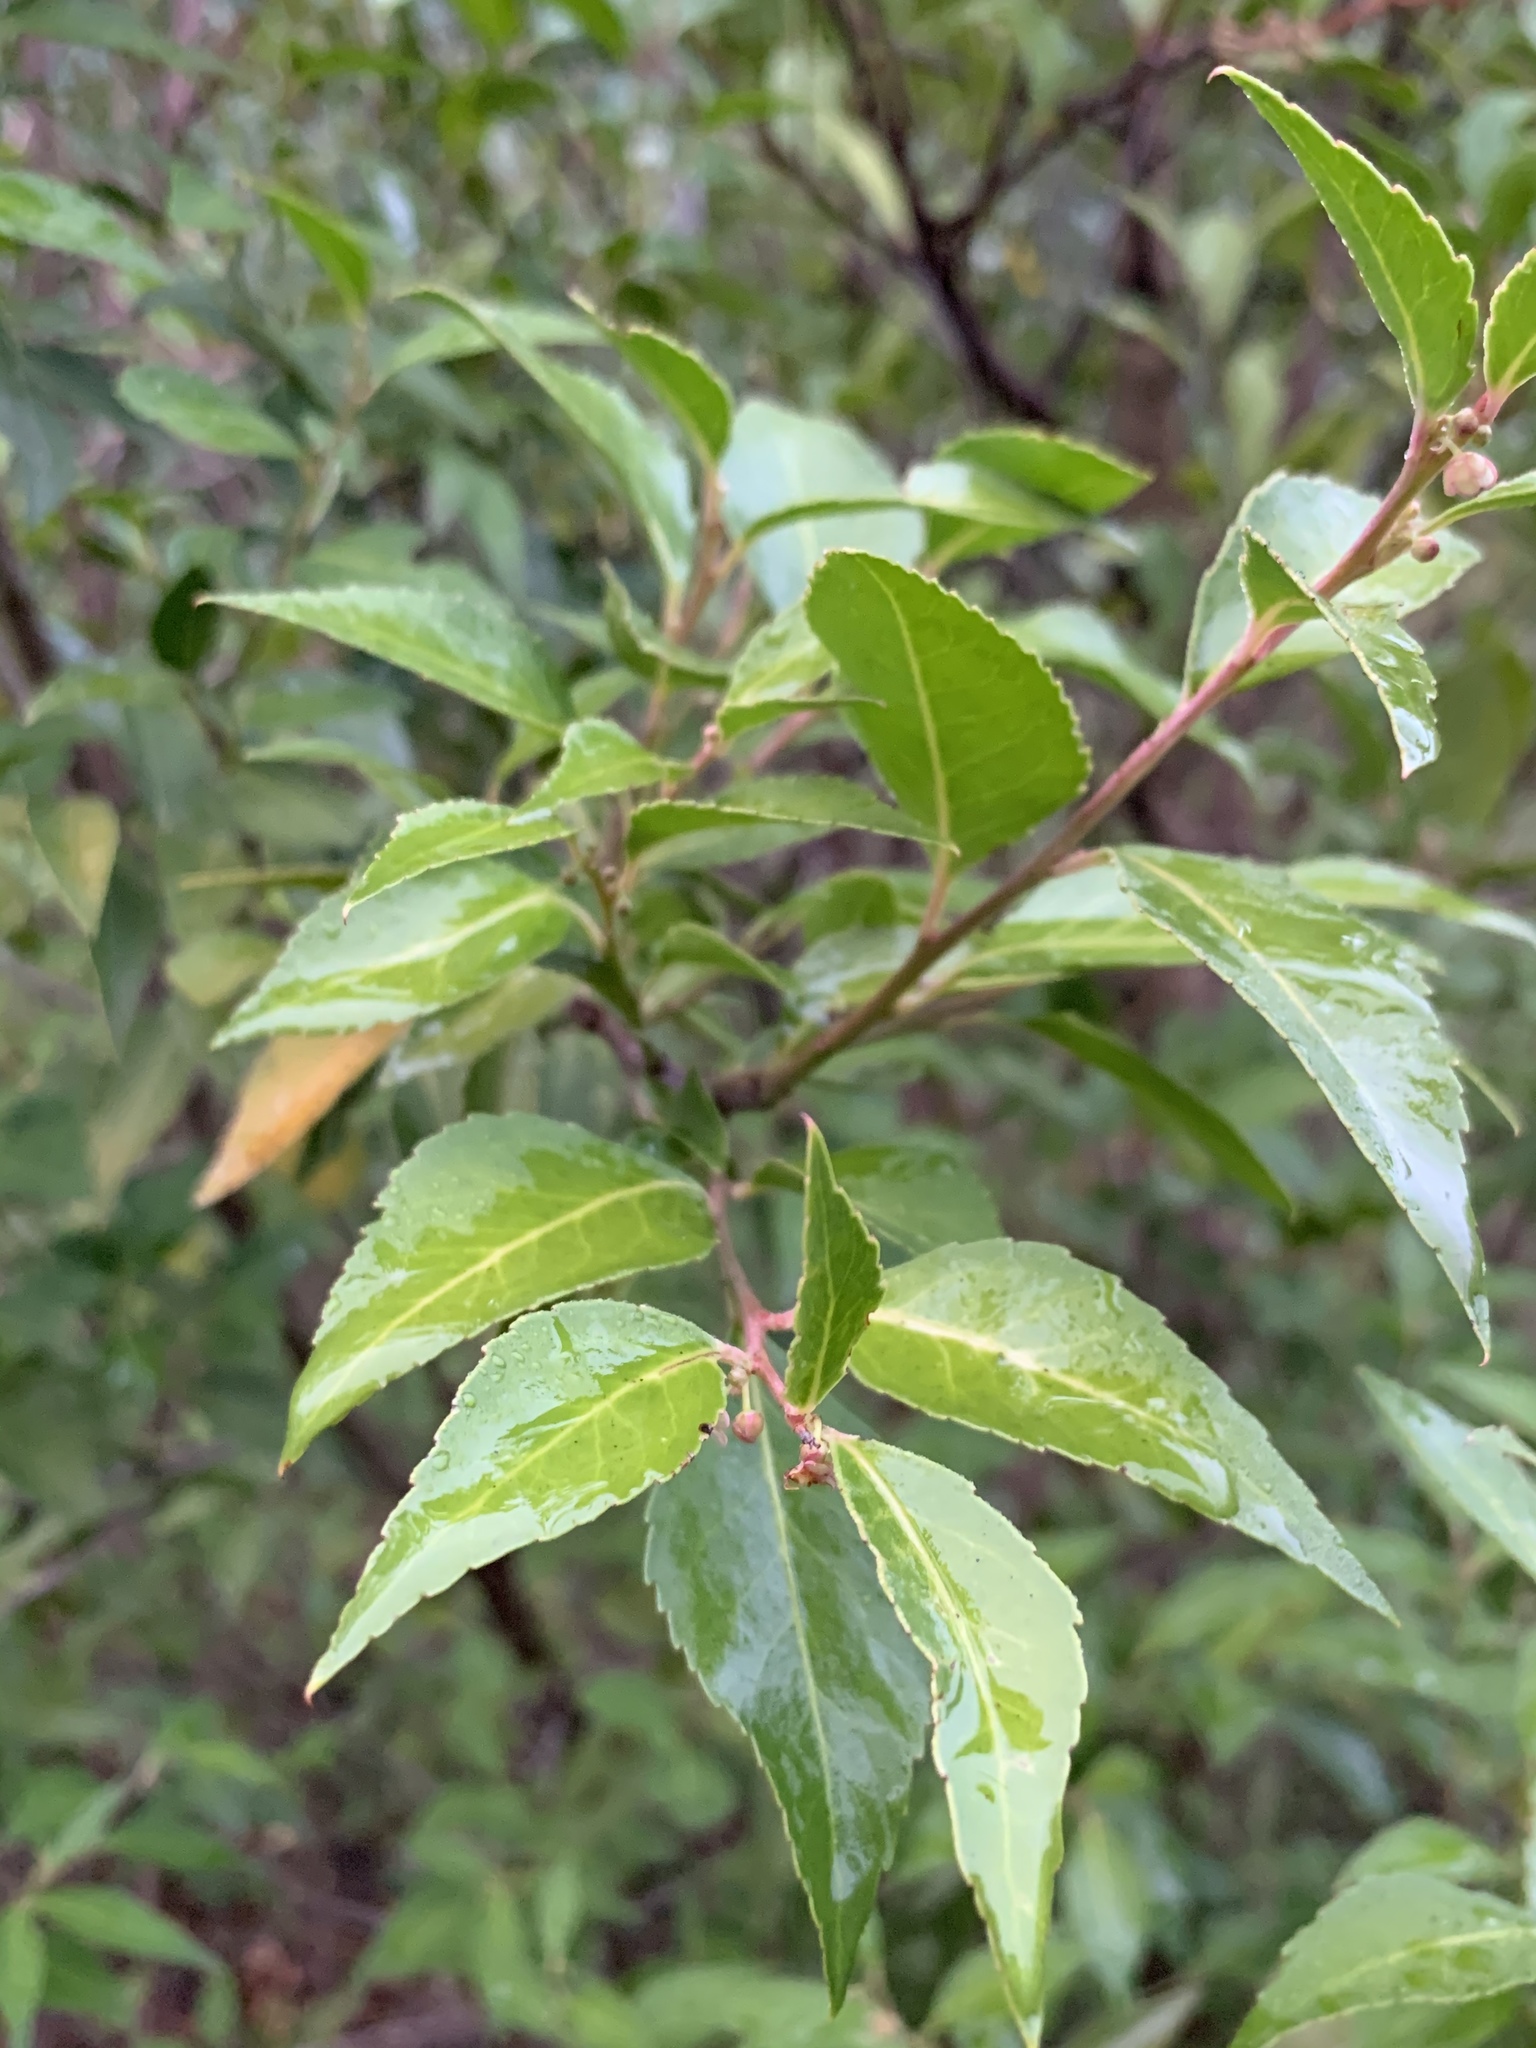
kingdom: Plantae
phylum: Tracheophyta
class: Magnoliopsida
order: Celastrales
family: Celastraceae
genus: Gymnosporia
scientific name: Gymnosporia acuminata
